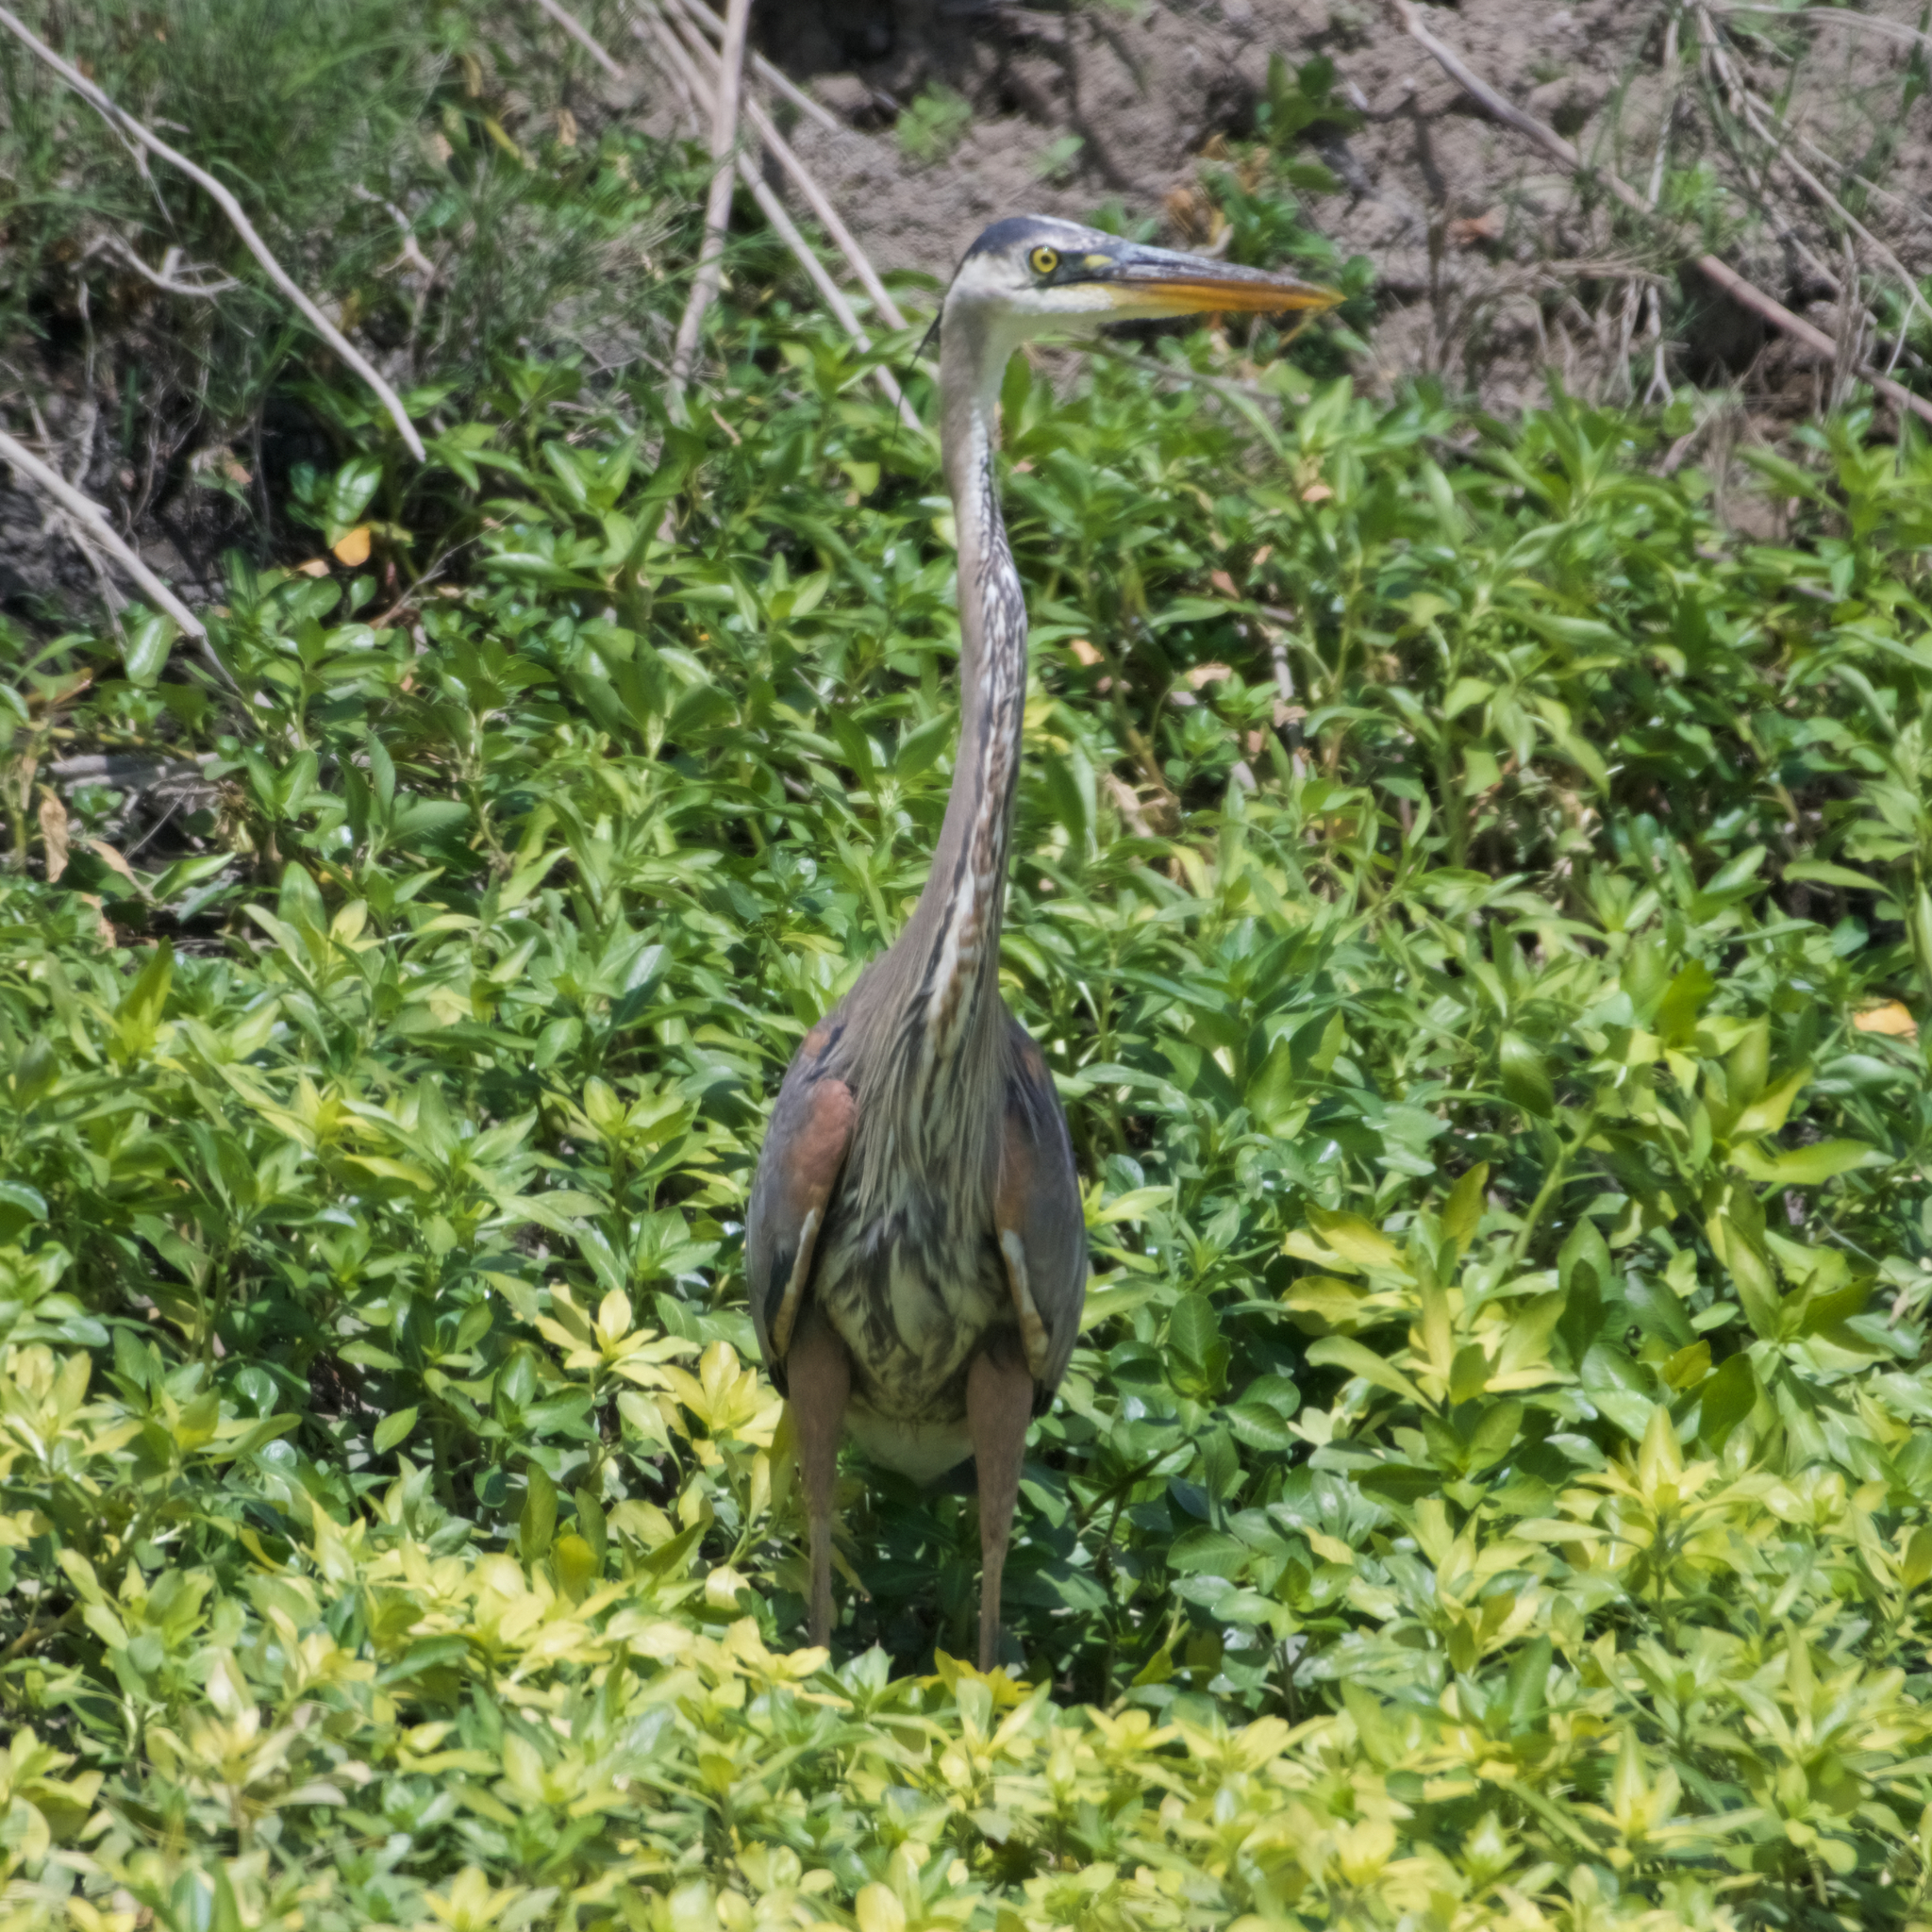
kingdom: Animalia
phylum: Chordata
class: Aves
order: Pelecaniformes
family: Ardeidae
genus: Ardea
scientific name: Ardea herodias
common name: Great blue heron
